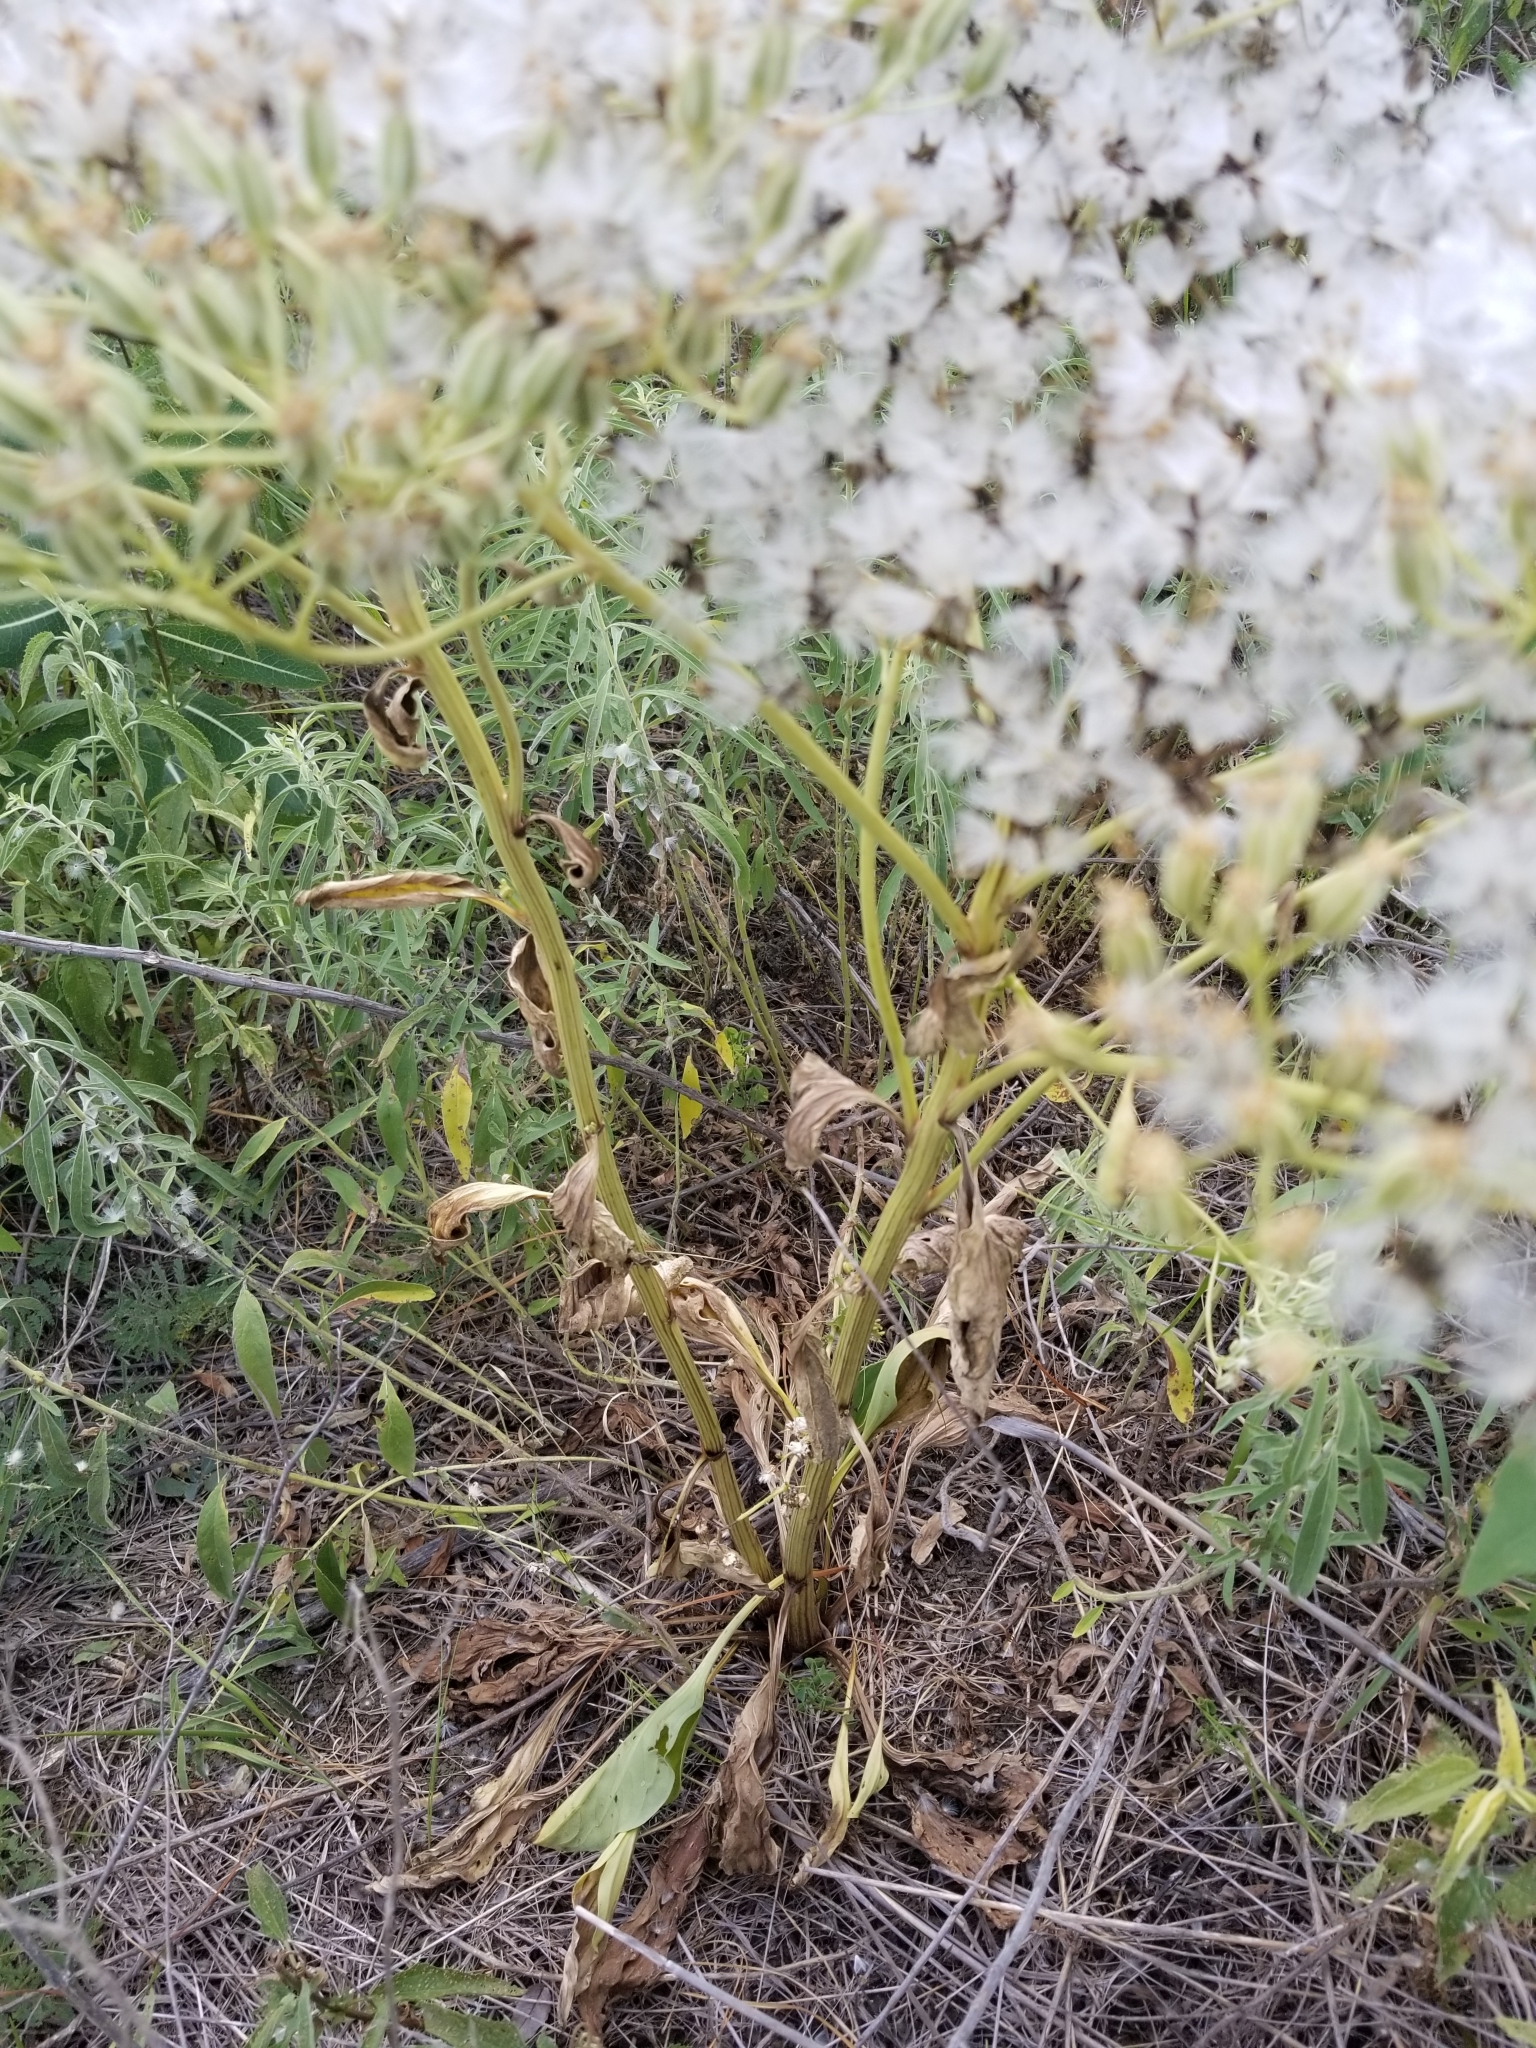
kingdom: Plantae
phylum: Tracheophyta
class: Magnoliopsida
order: Asterales
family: Asteraceae
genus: Arnoglossum
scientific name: Arnoglossum plantagineum
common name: Groove-stemmed indian-plantain
